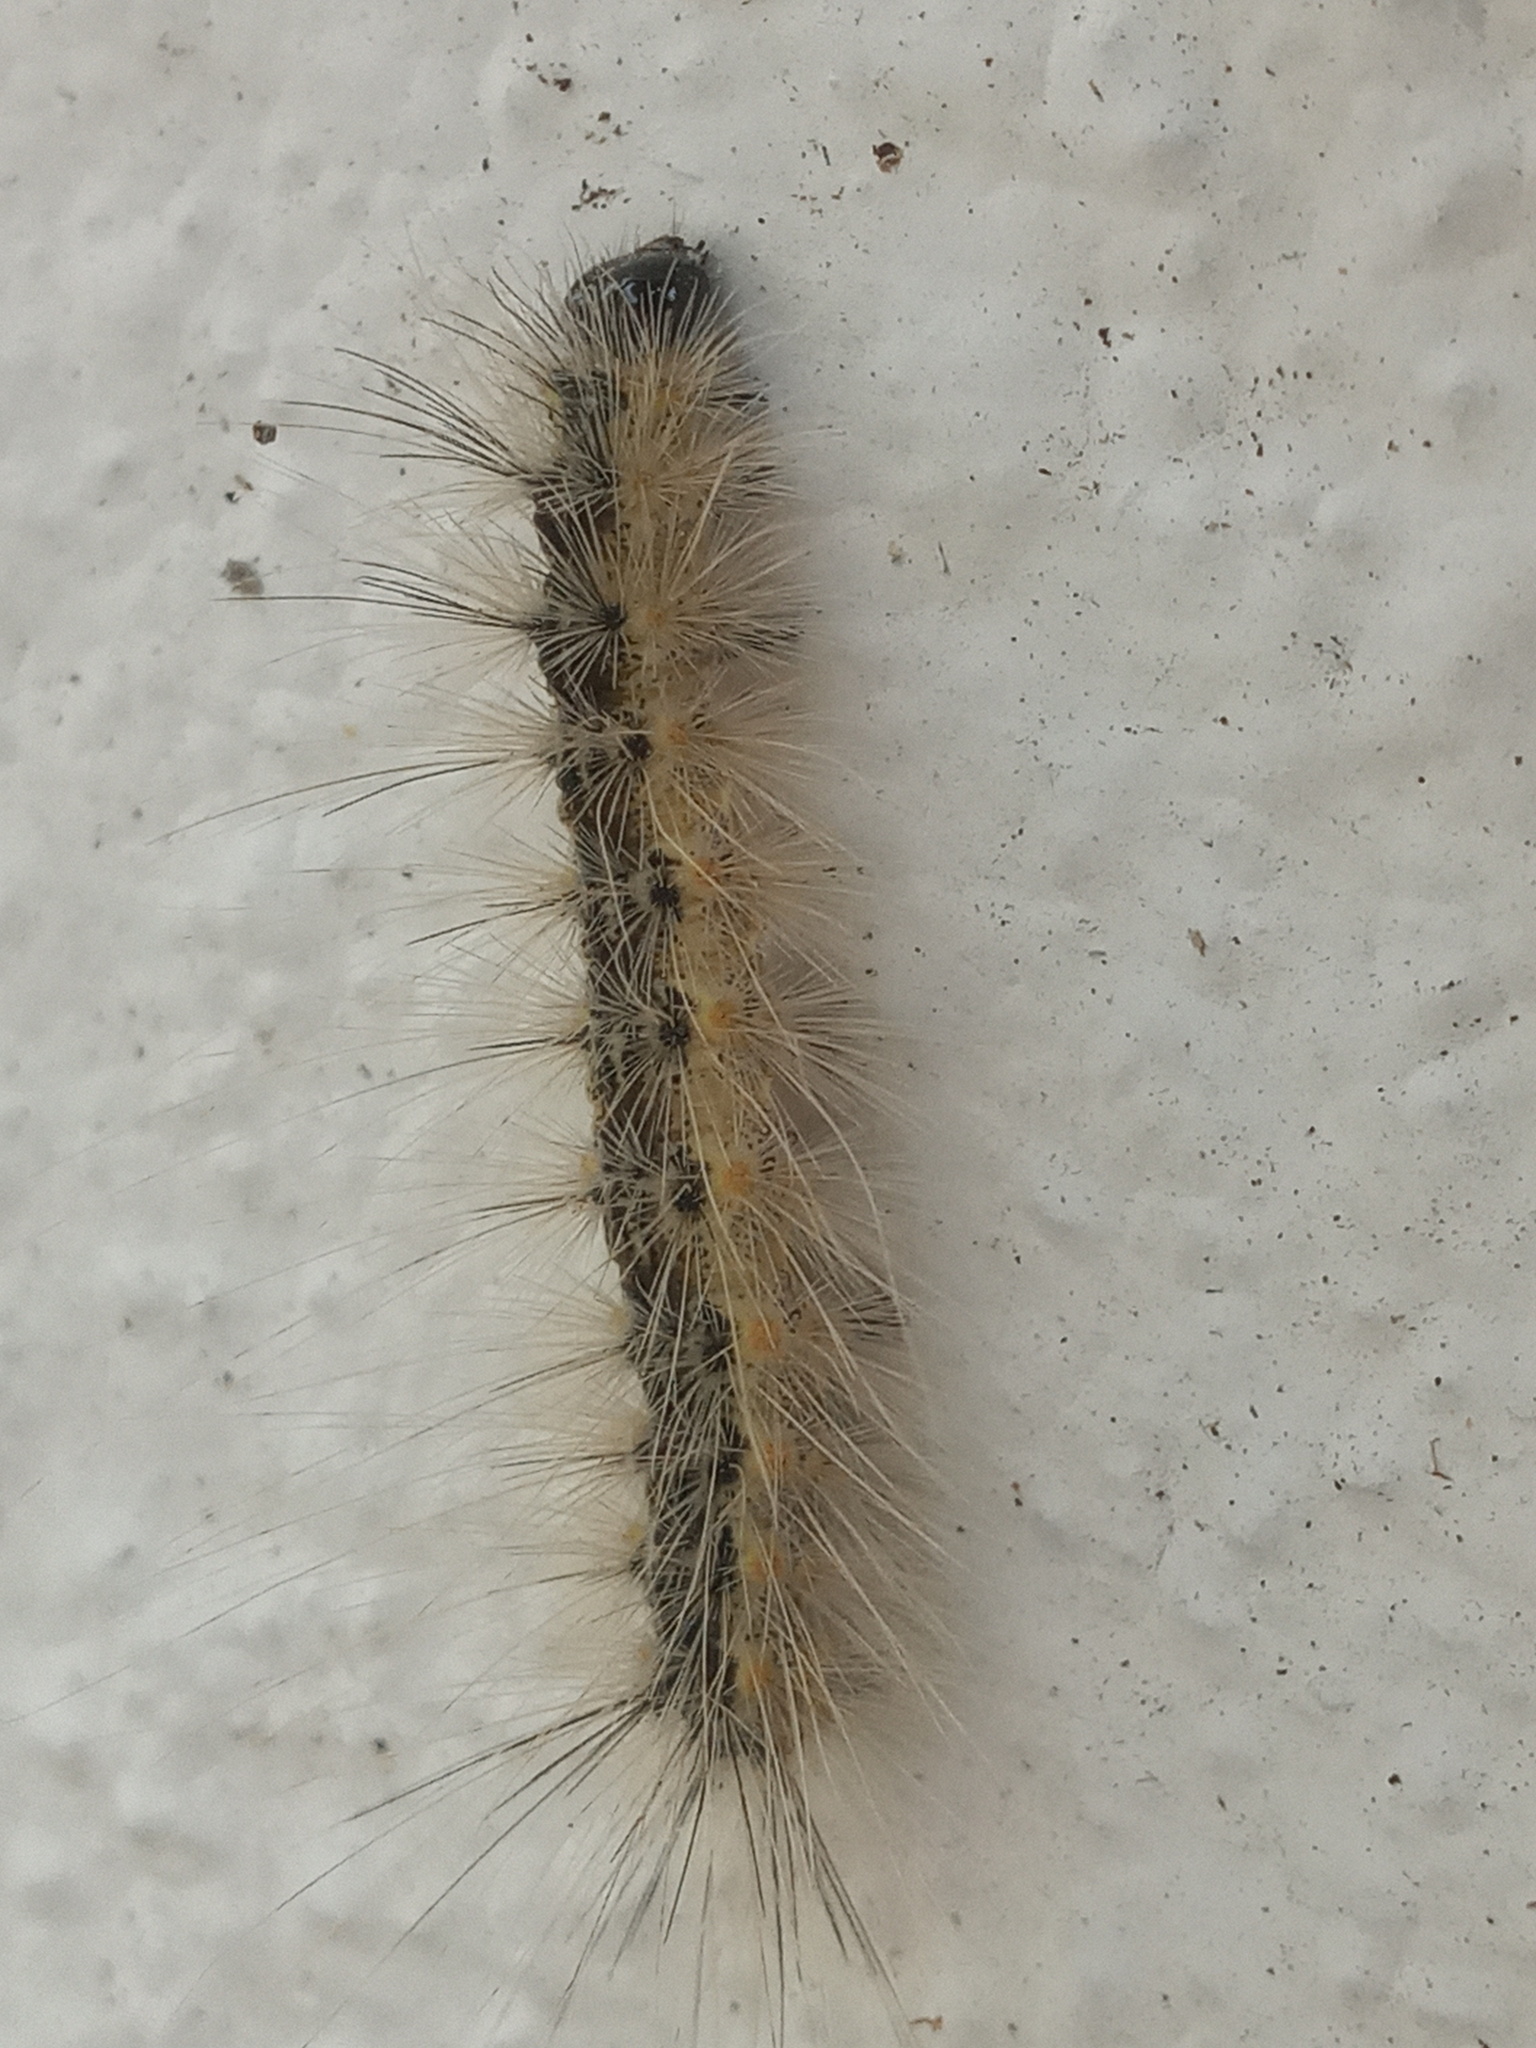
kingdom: Animalia
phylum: Arthropoda
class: Insecta
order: Lepidoptera
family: Erebidae
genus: Estigmene
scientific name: Estigmene acrea
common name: Salt marsh moth
